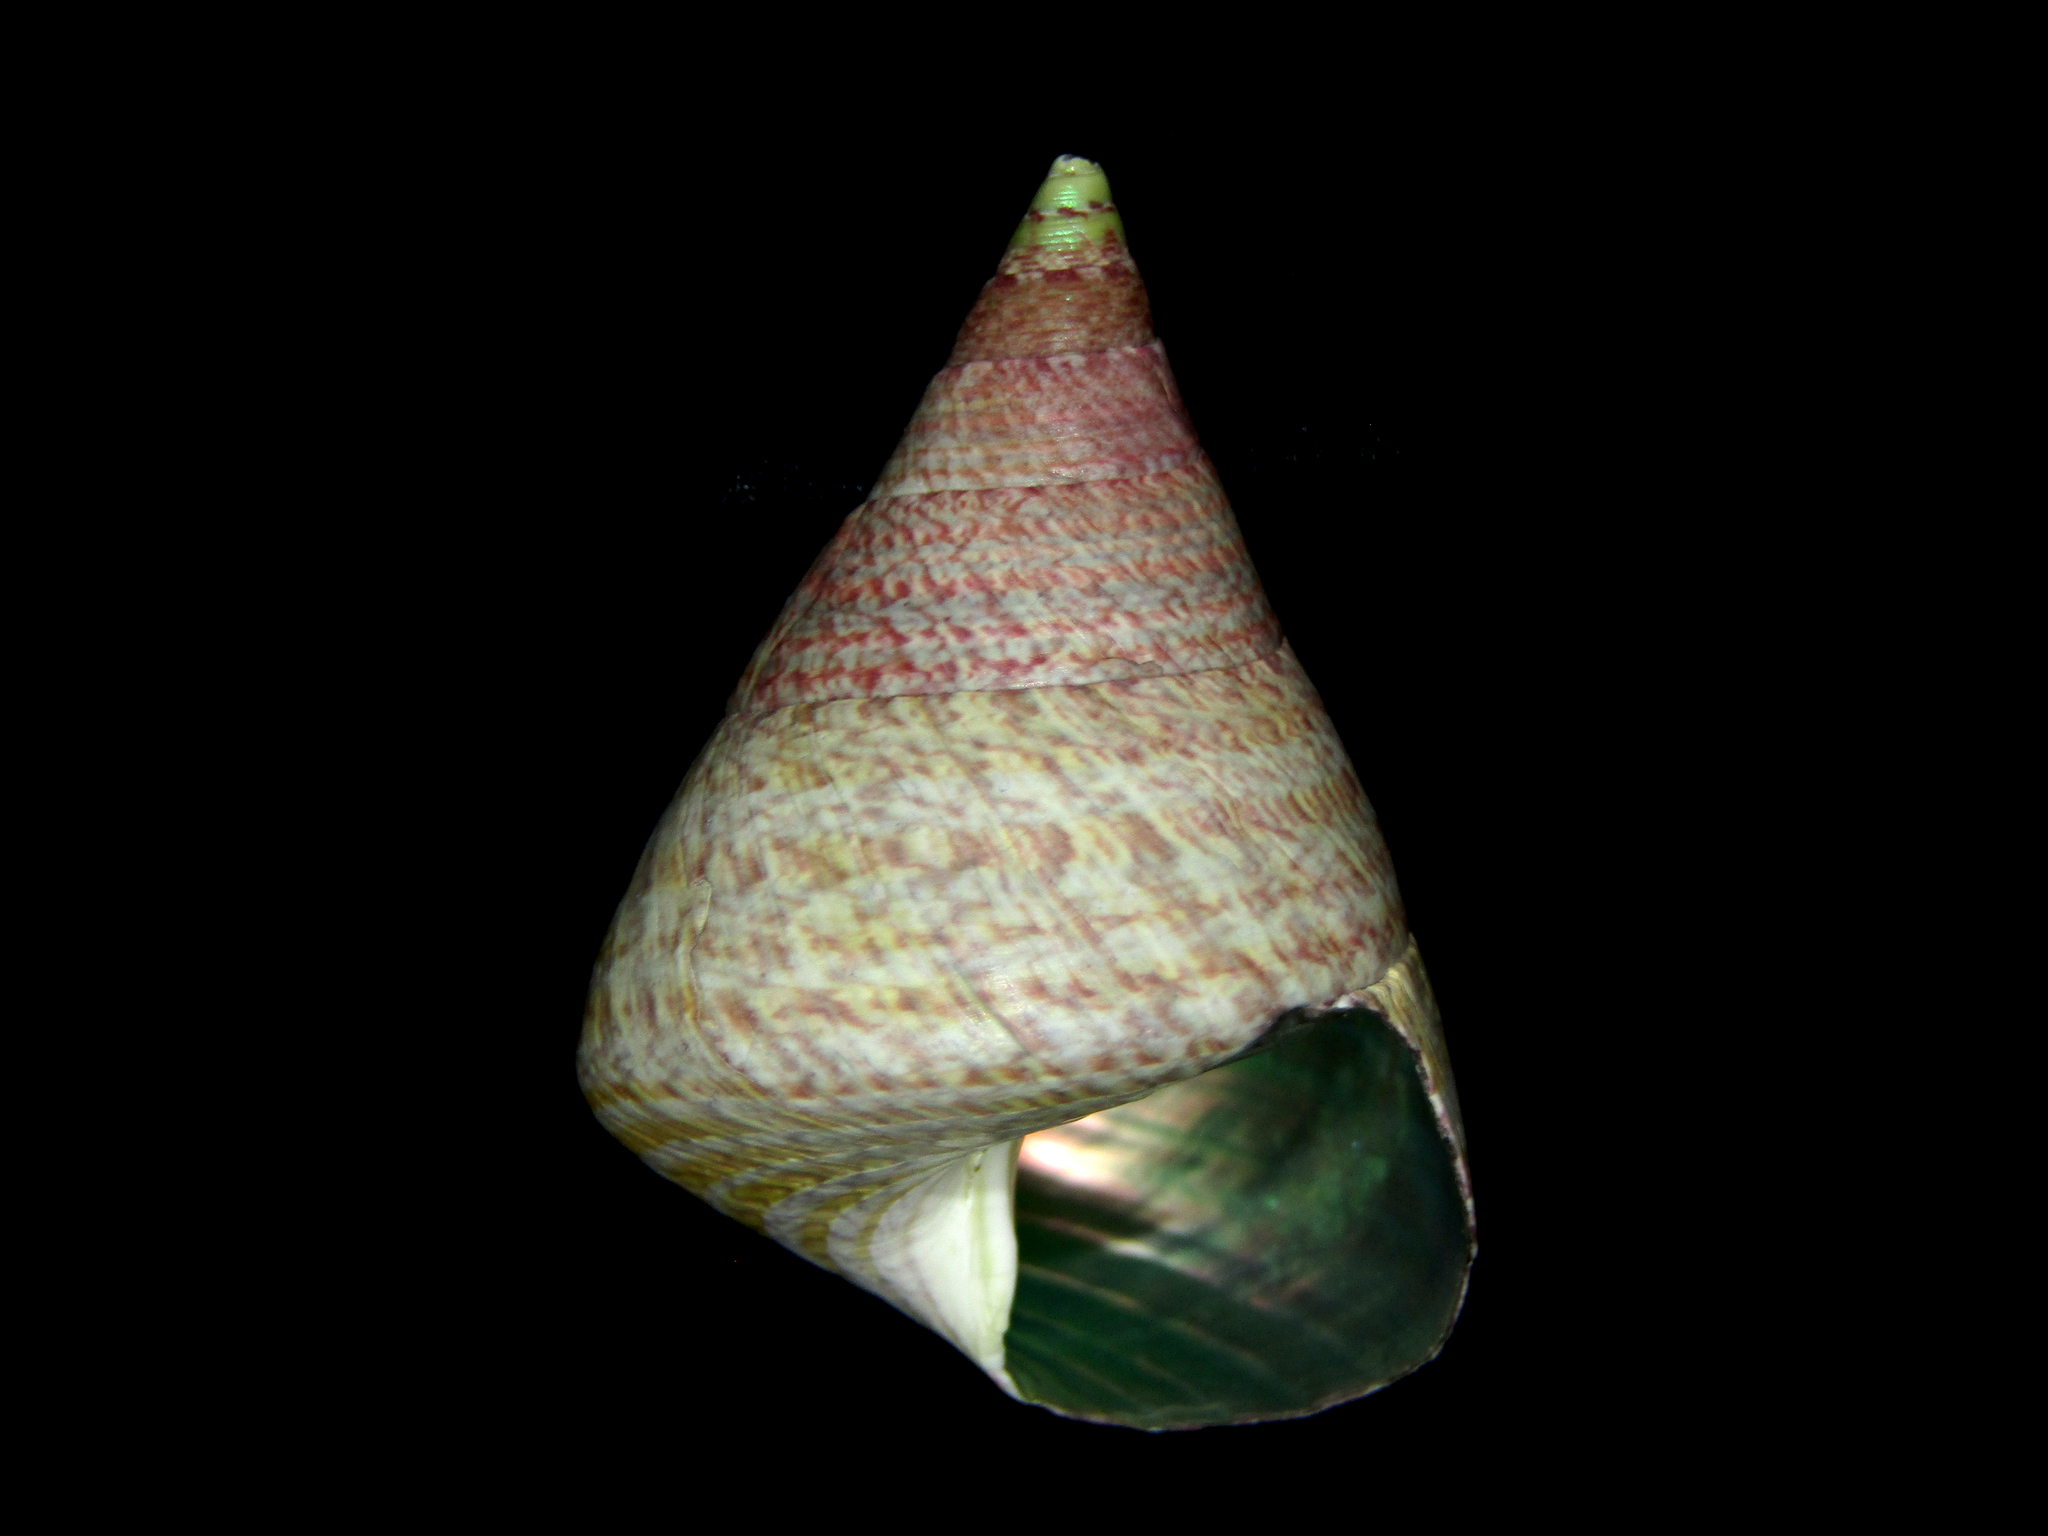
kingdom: Animalia
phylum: Mollusca
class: Gastropoda
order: Trochida
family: Trochidae
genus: Cantharidus
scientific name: Cantharidus opalus
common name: Opal jewel topsnail
